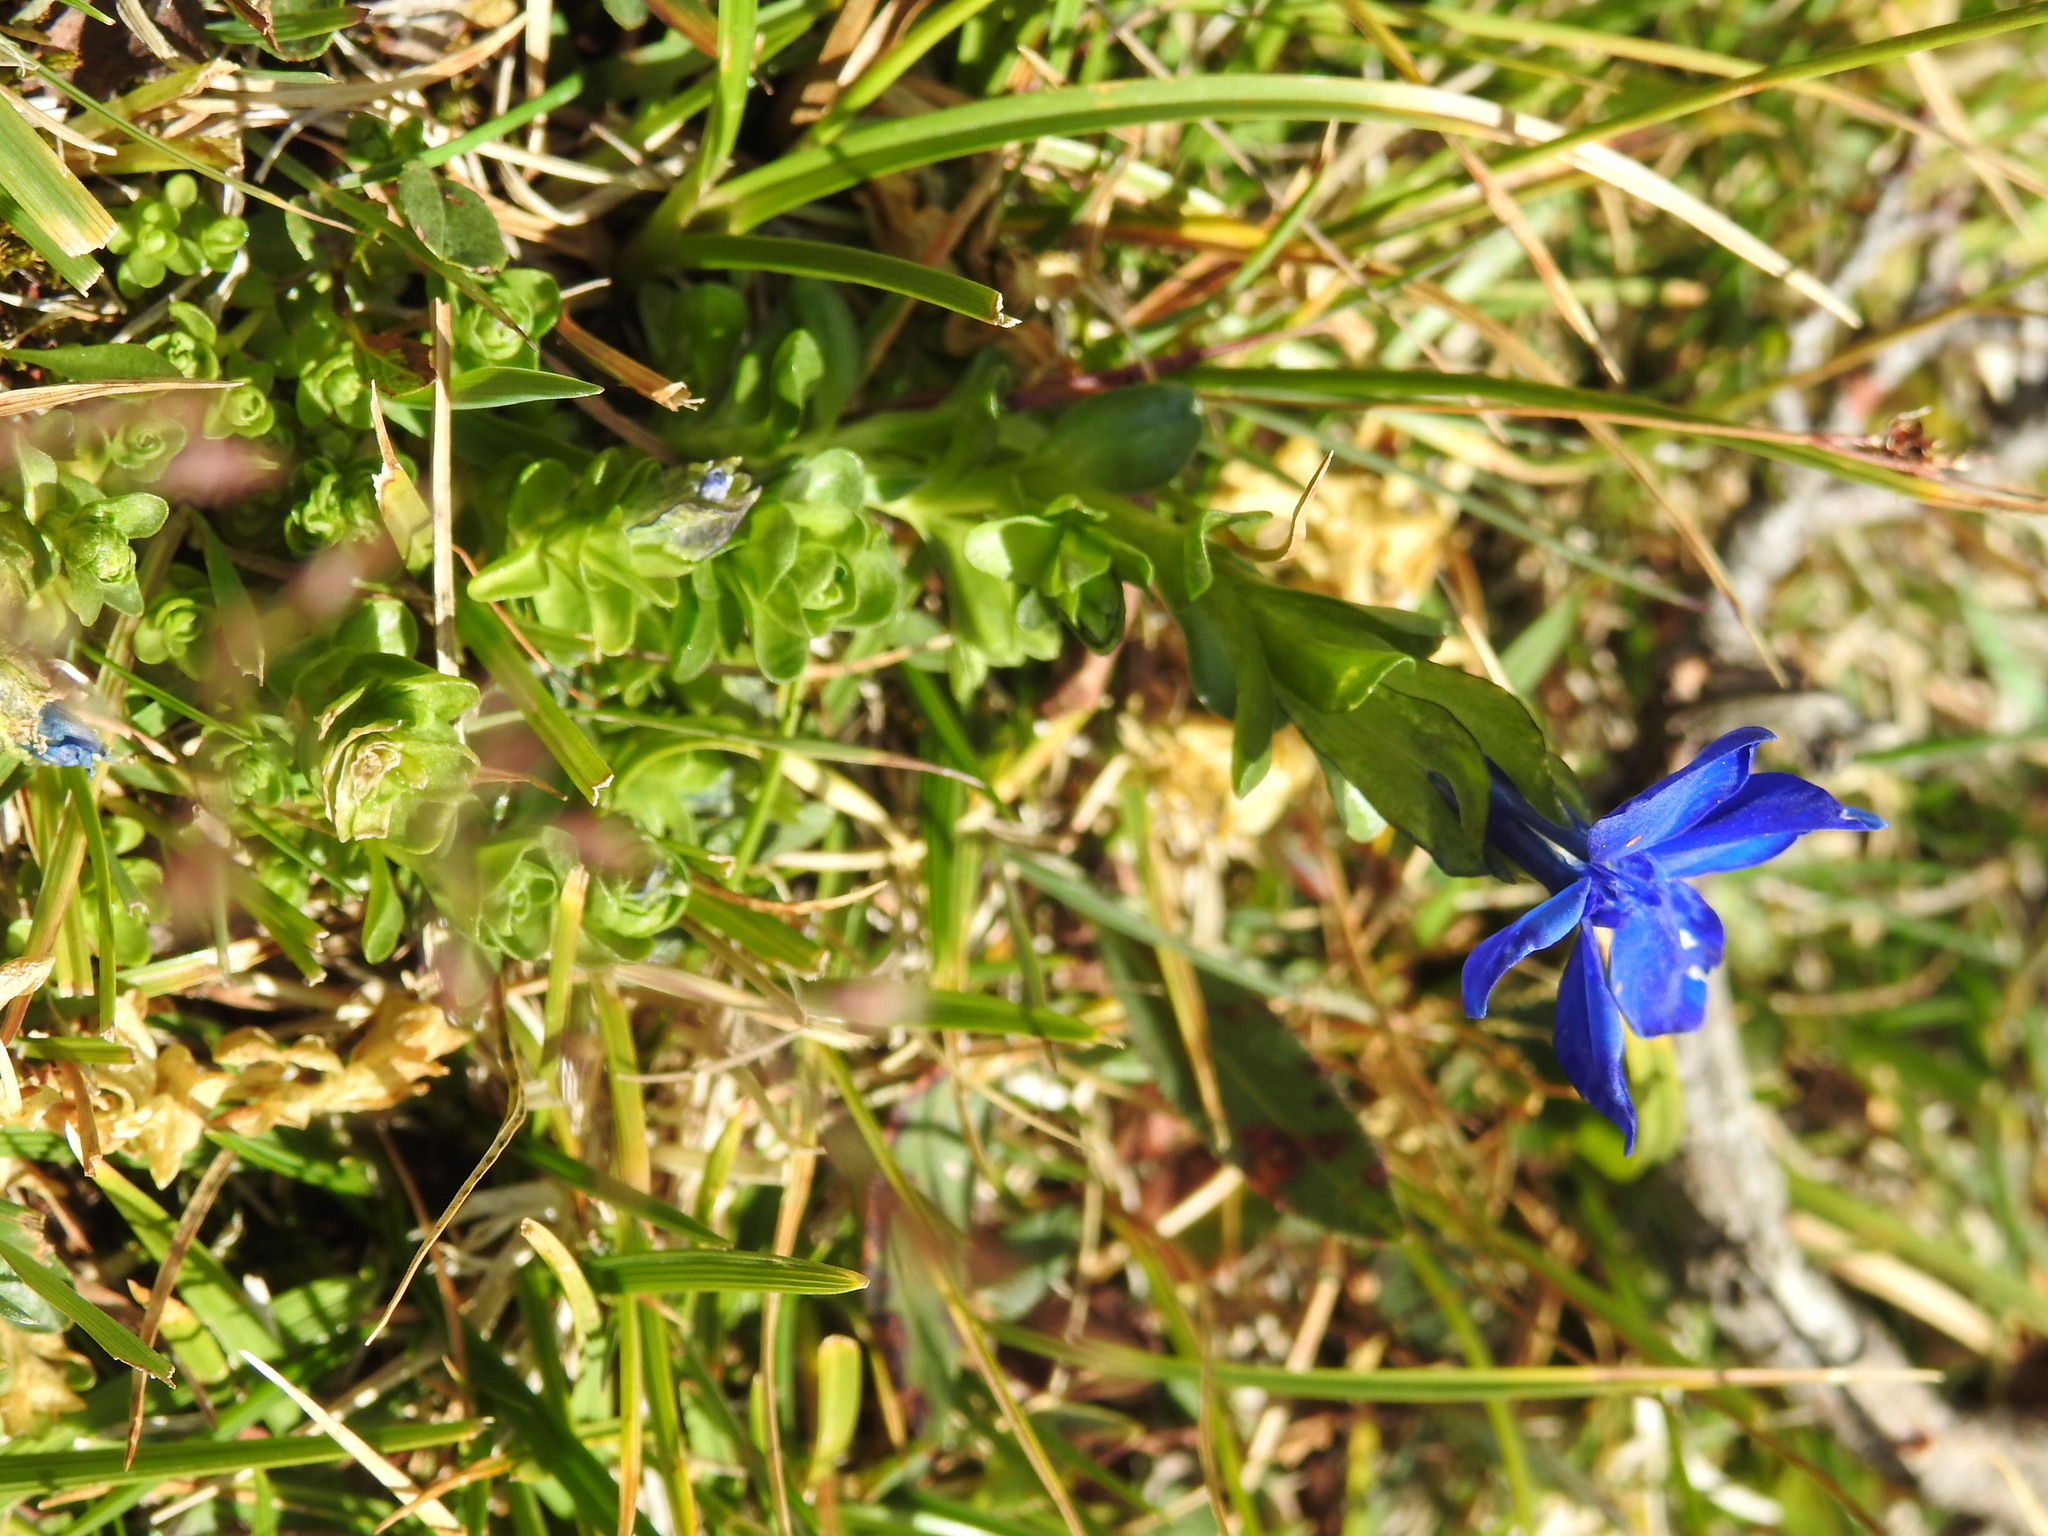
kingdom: Plantae
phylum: Tracheophyta
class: Magnoliopsida
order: Gentianales
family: Gentianaceae
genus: Gentiana
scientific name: Gentiana bavarica
